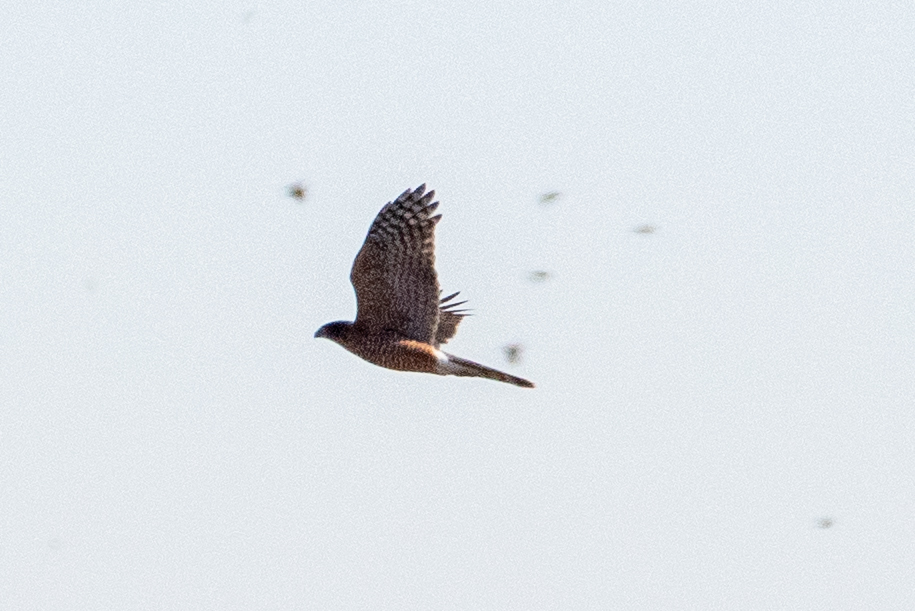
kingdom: Animalia
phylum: Chordata
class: Aves
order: Accipitriformes
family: Accipitridae
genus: Accipiter
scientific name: Accipiter cooperii
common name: Cooper's hawk
